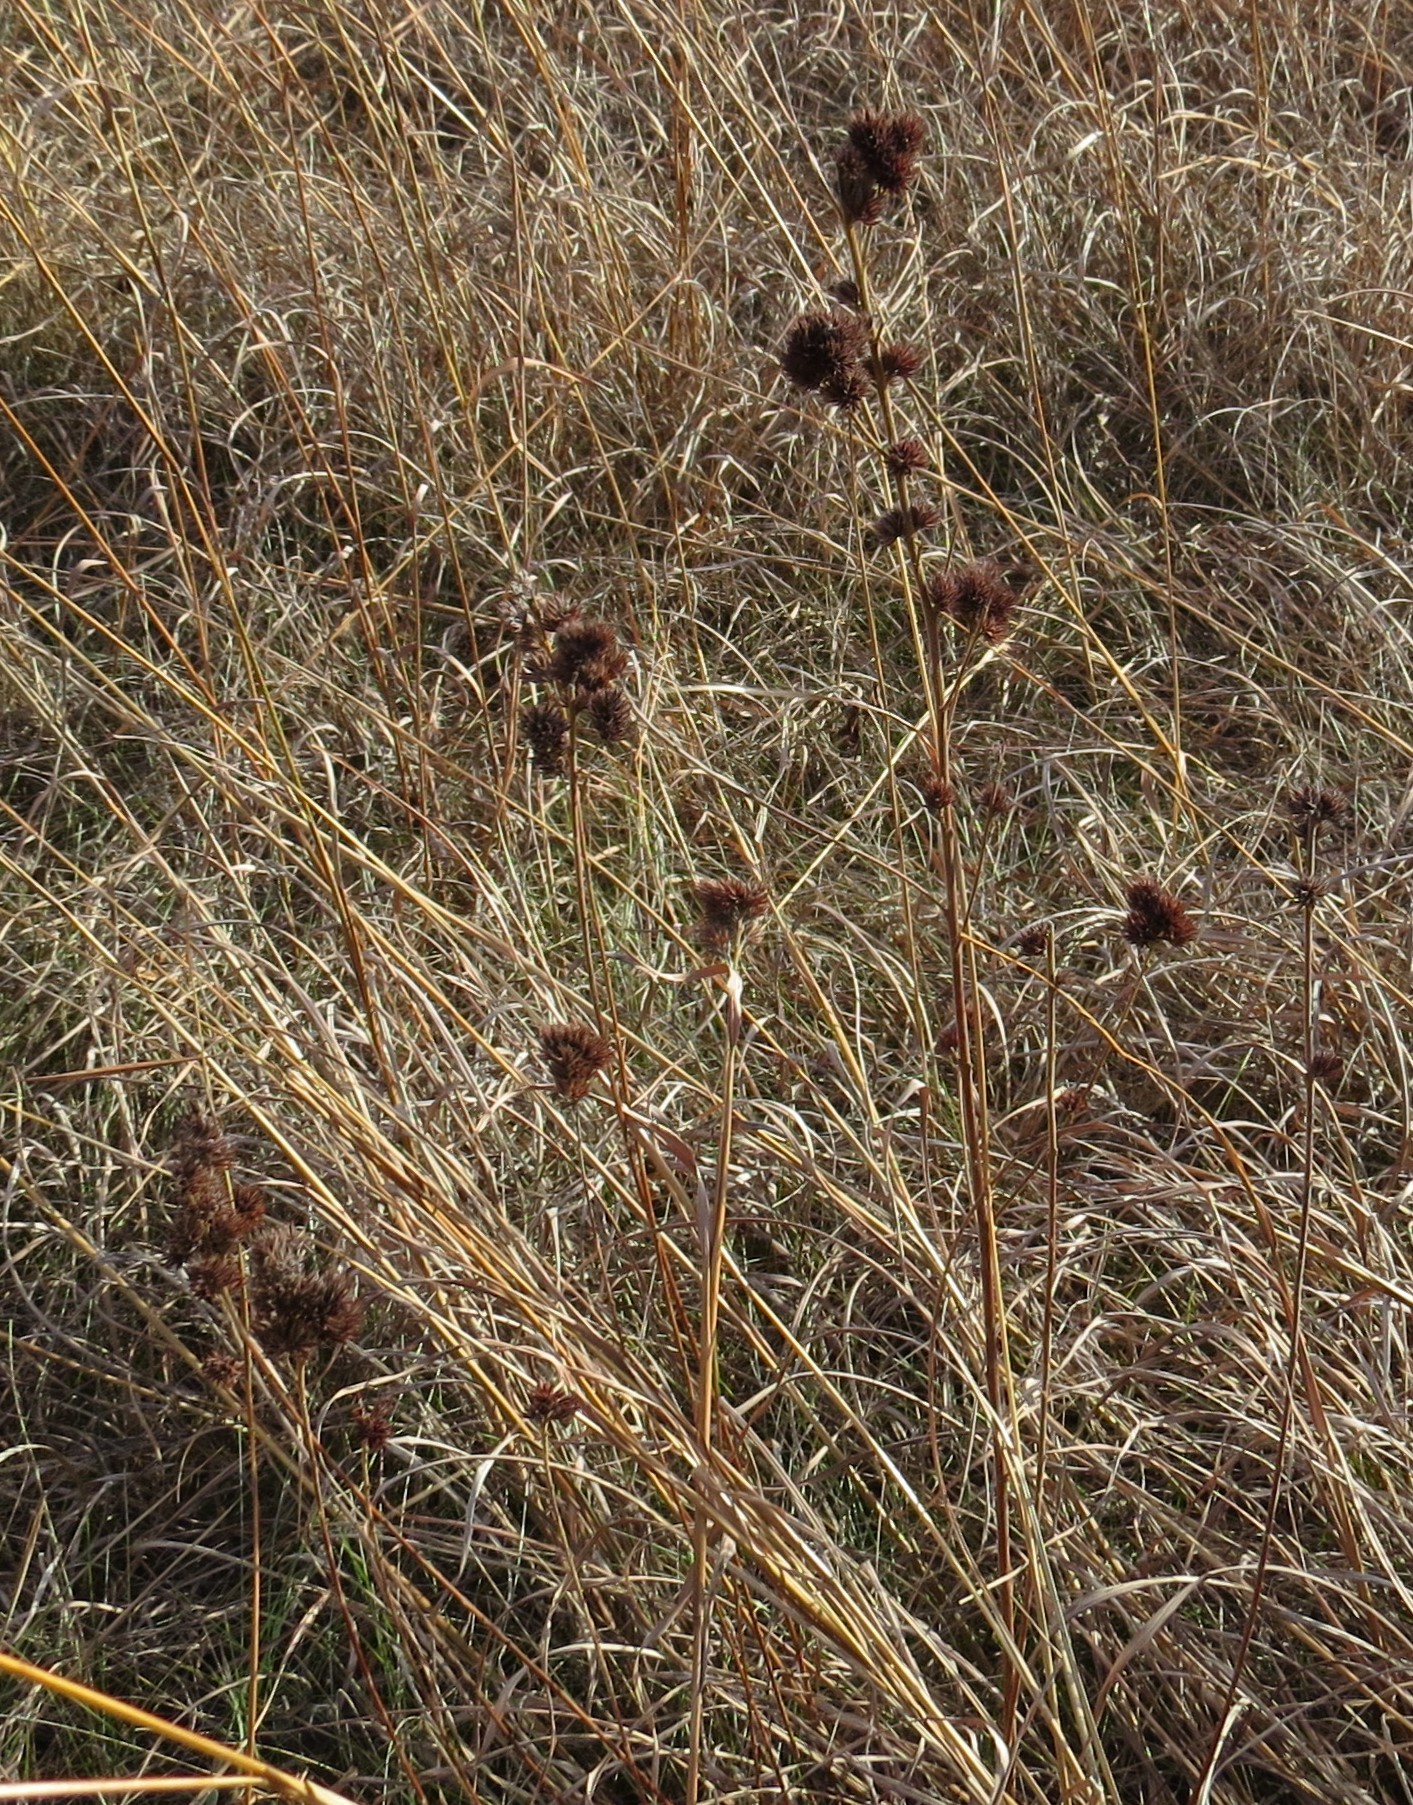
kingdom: Plantae
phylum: Tracheophyta
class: Magnoliopsida
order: Fabales
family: Fabaceae
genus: Lespedeza
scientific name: Lespedeza capitata
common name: Dusty clover
